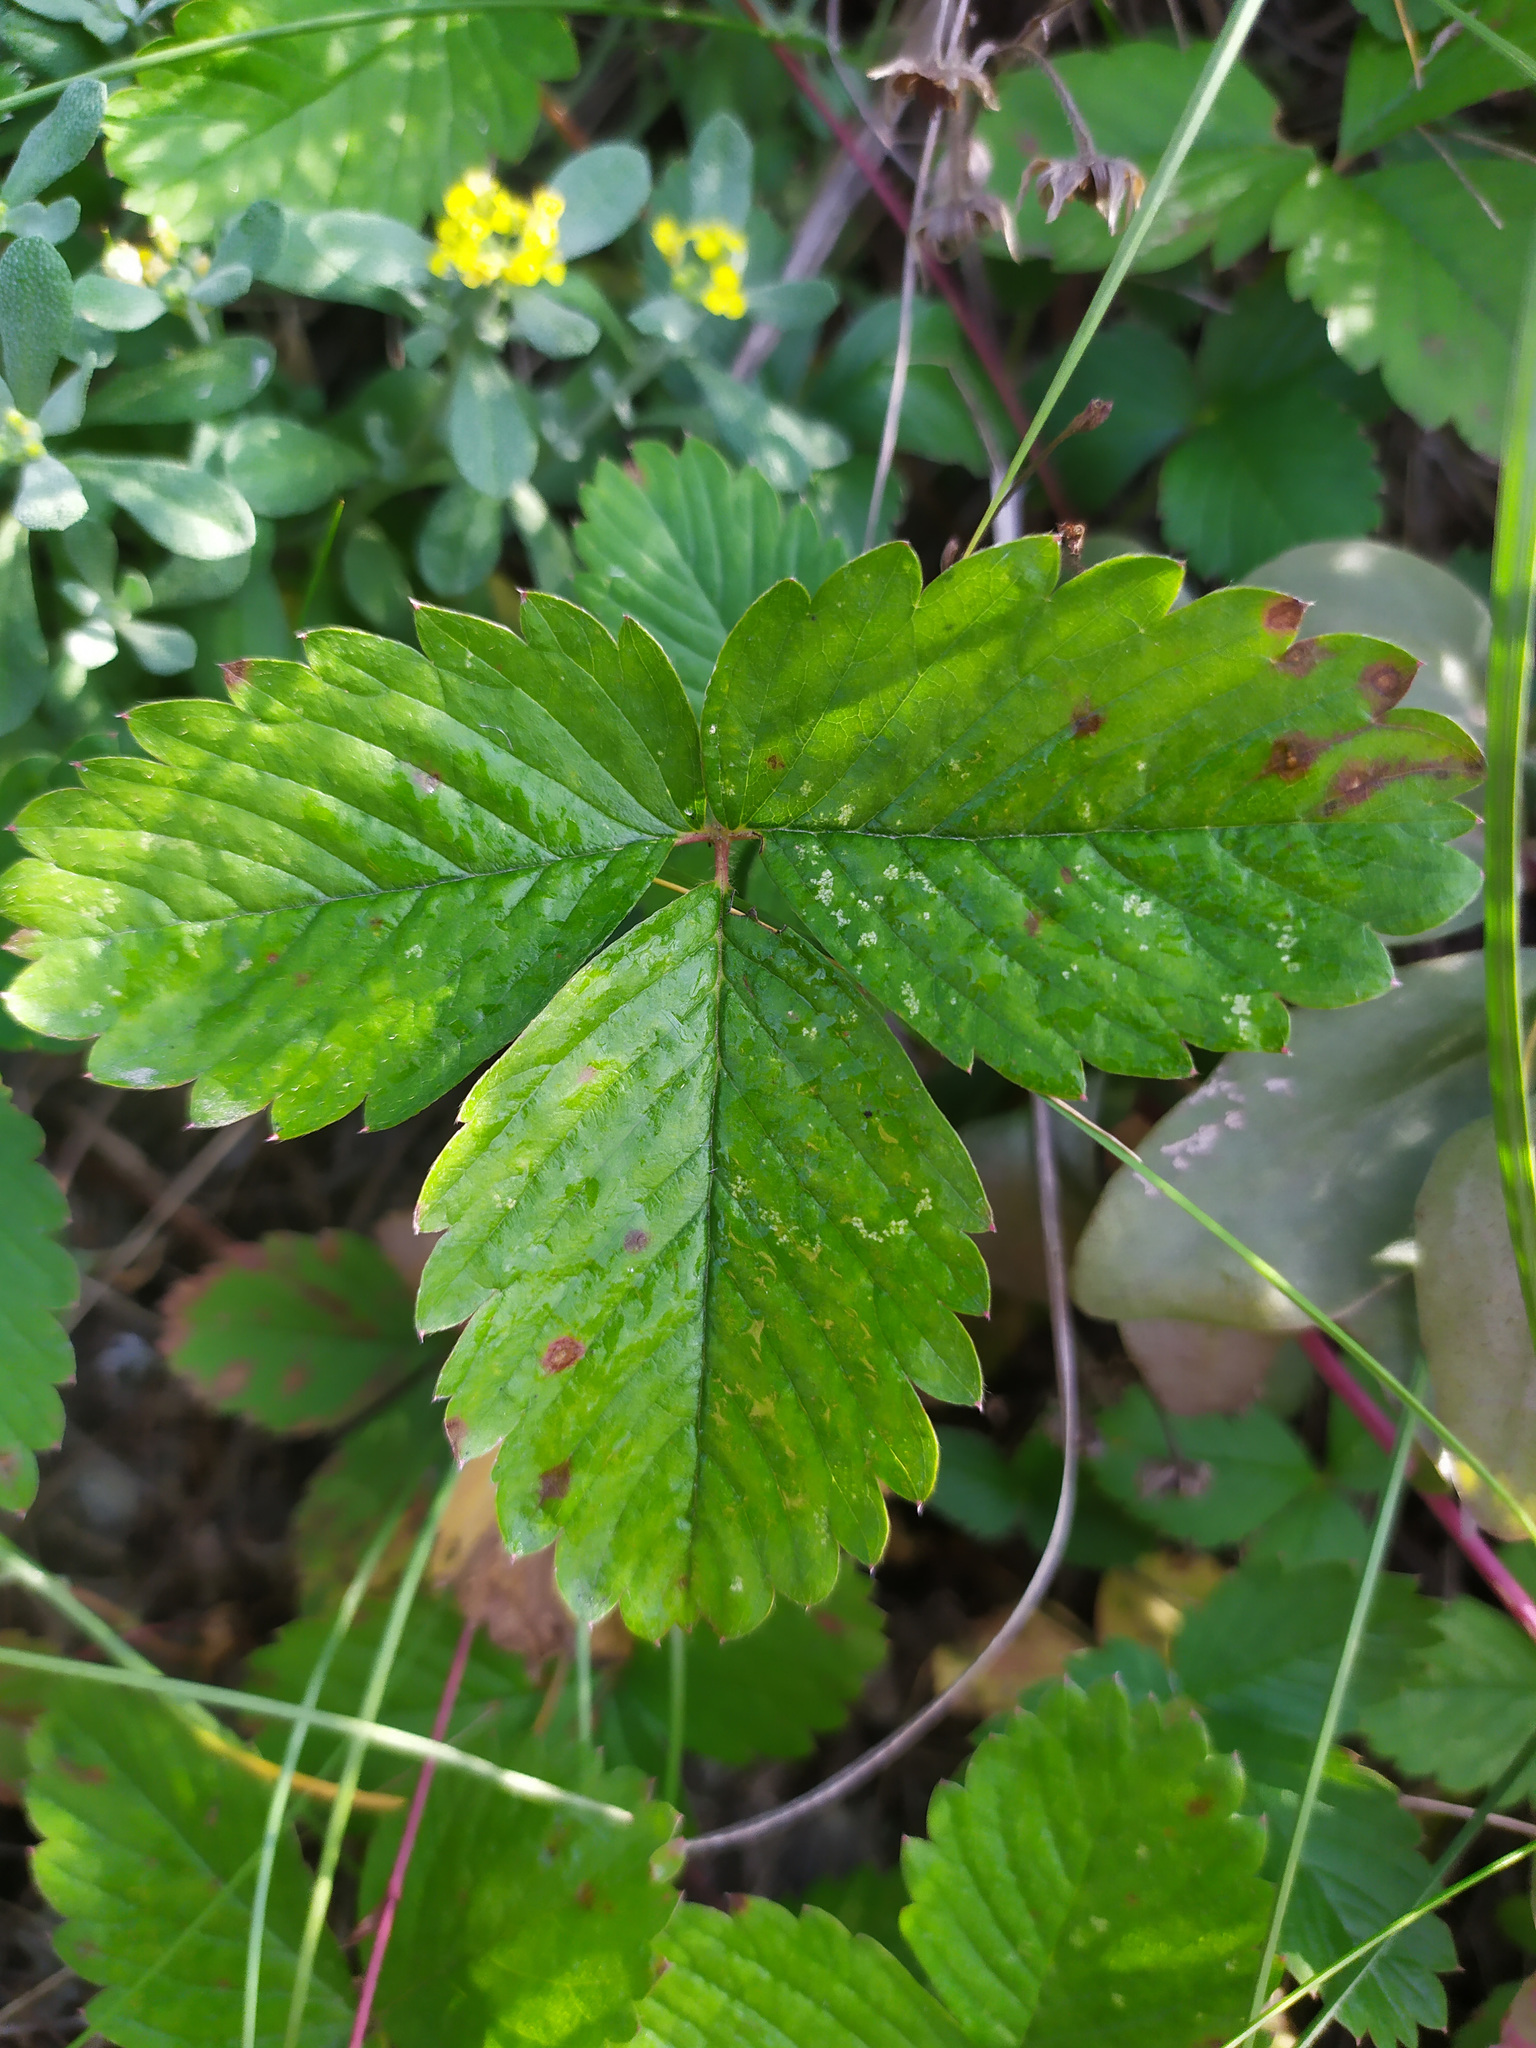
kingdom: Plantae
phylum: Tracheophyta
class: Magnoliopsida
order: Rosales
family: Rosaceae
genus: Fragaria
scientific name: Fragaria viridis
